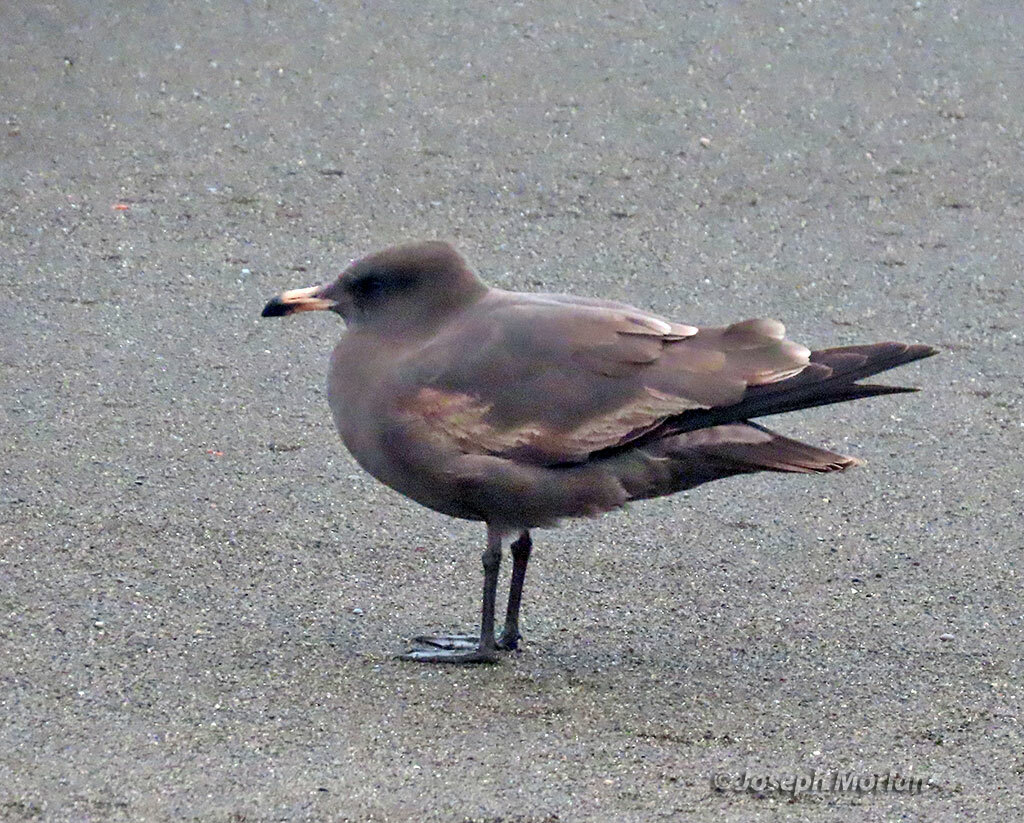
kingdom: Animalia
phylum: Chordata
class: Aves
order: Charadriiformes
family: Laridae
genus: Larus
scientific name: Larus heermanni
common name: Heermann's gull
